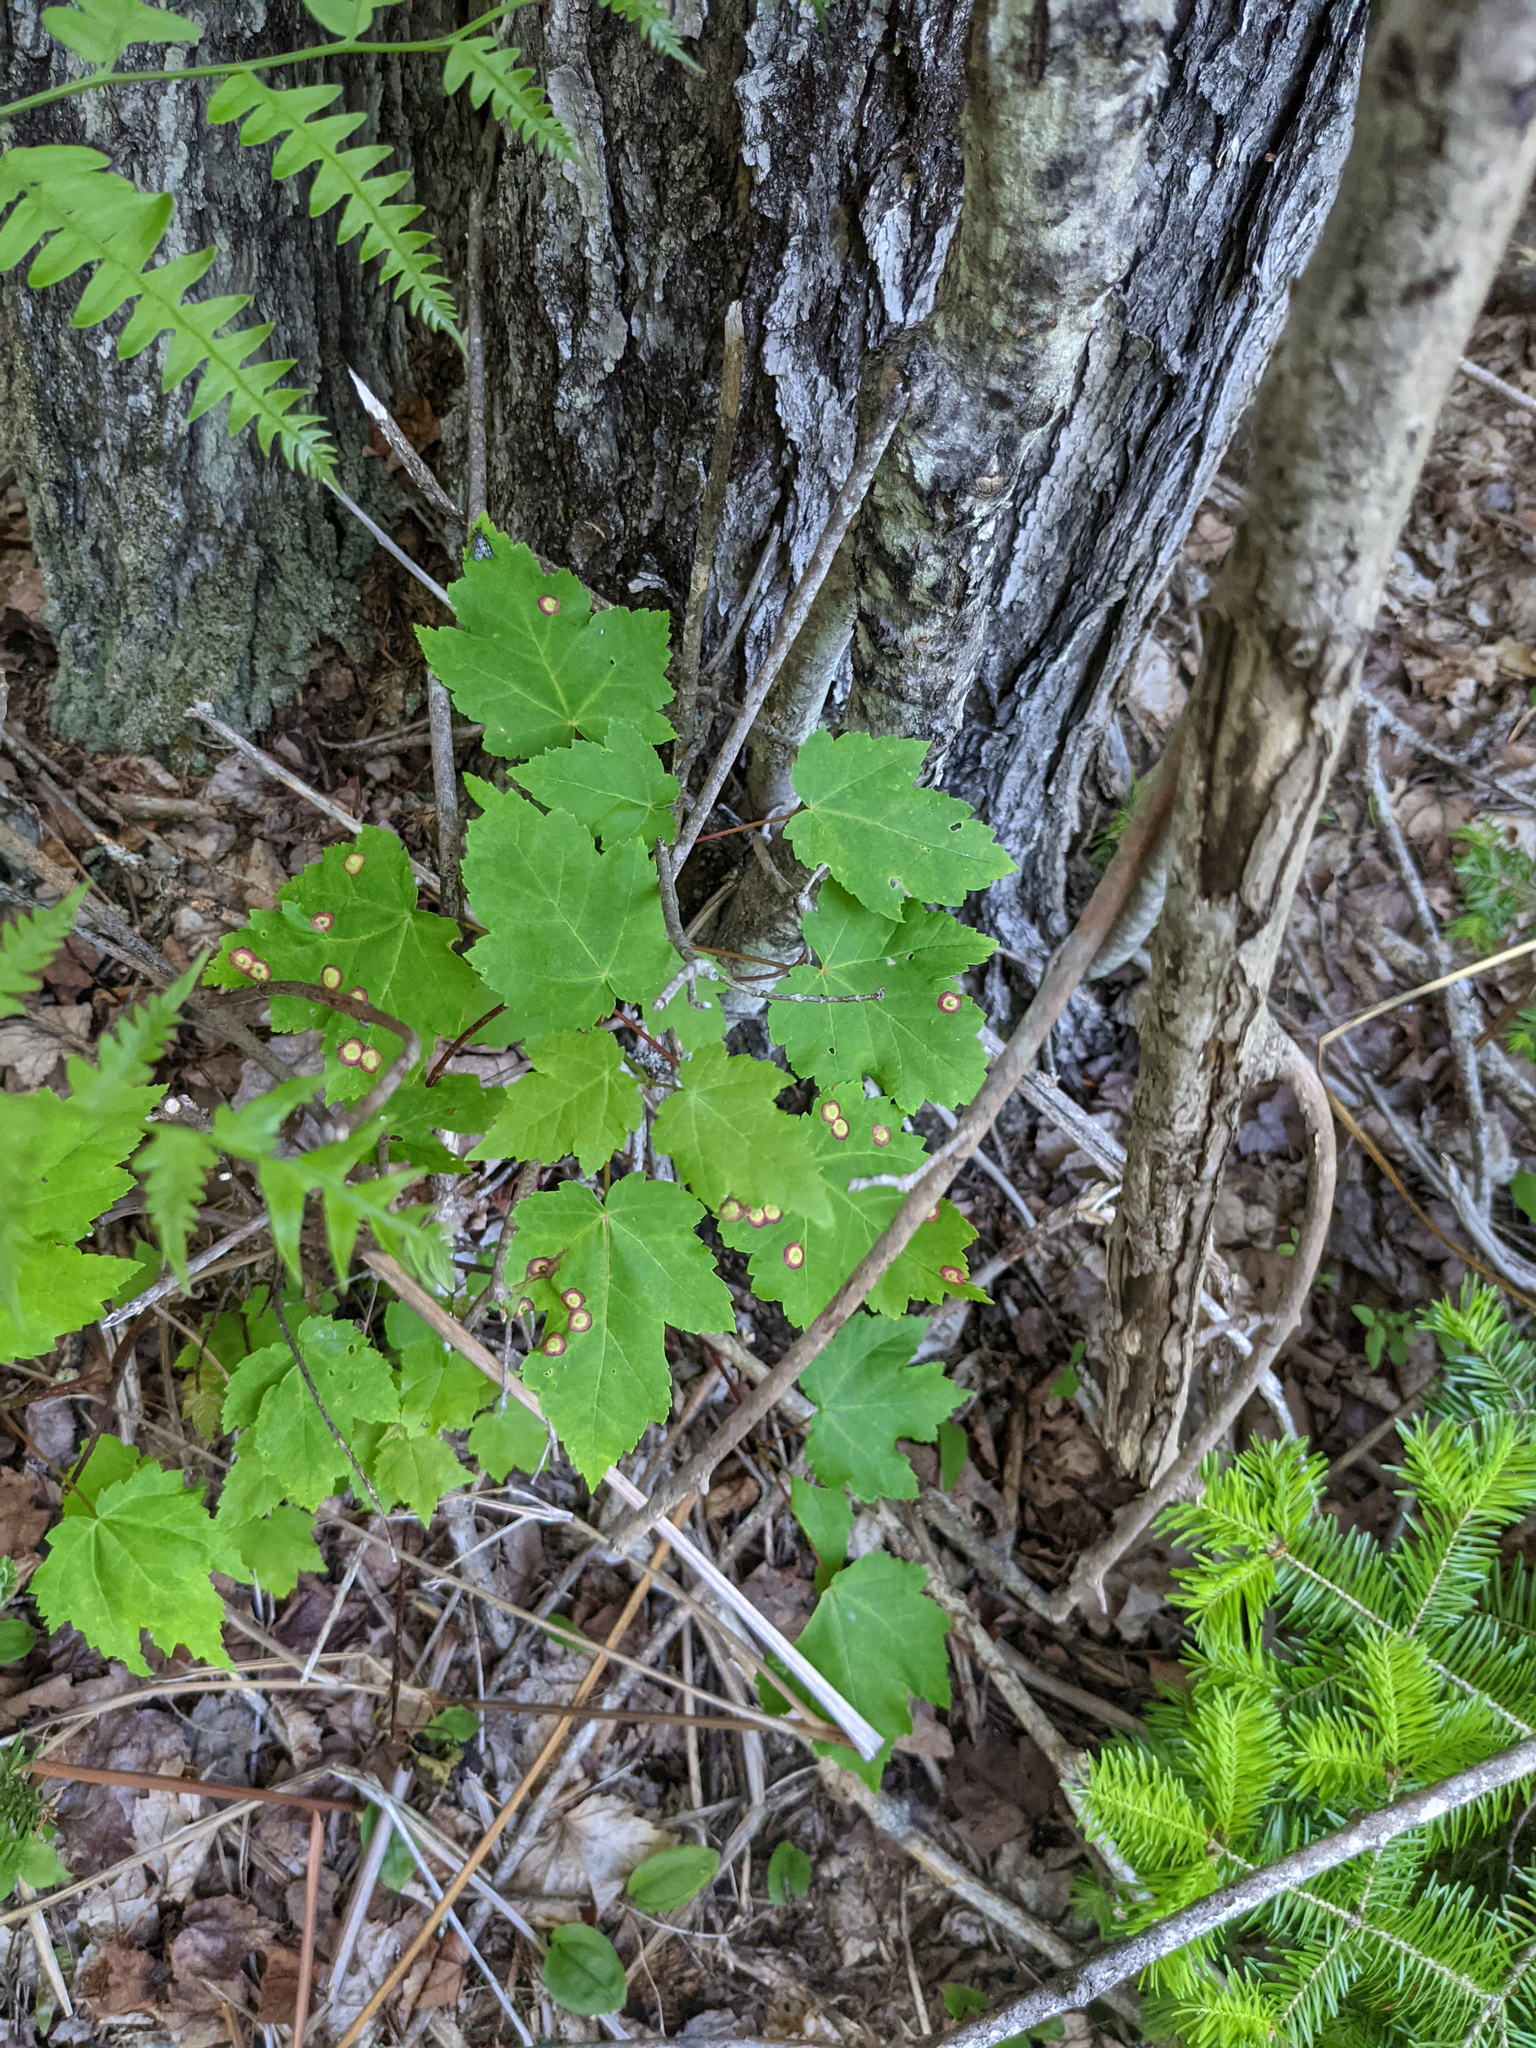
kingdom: Animalia
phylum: Arthropoda
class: Insecta
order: Diptera
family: Cecidomyiidae
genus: Acericecis
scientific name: Acericecis ocellaris
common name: Ocellate gall midge
